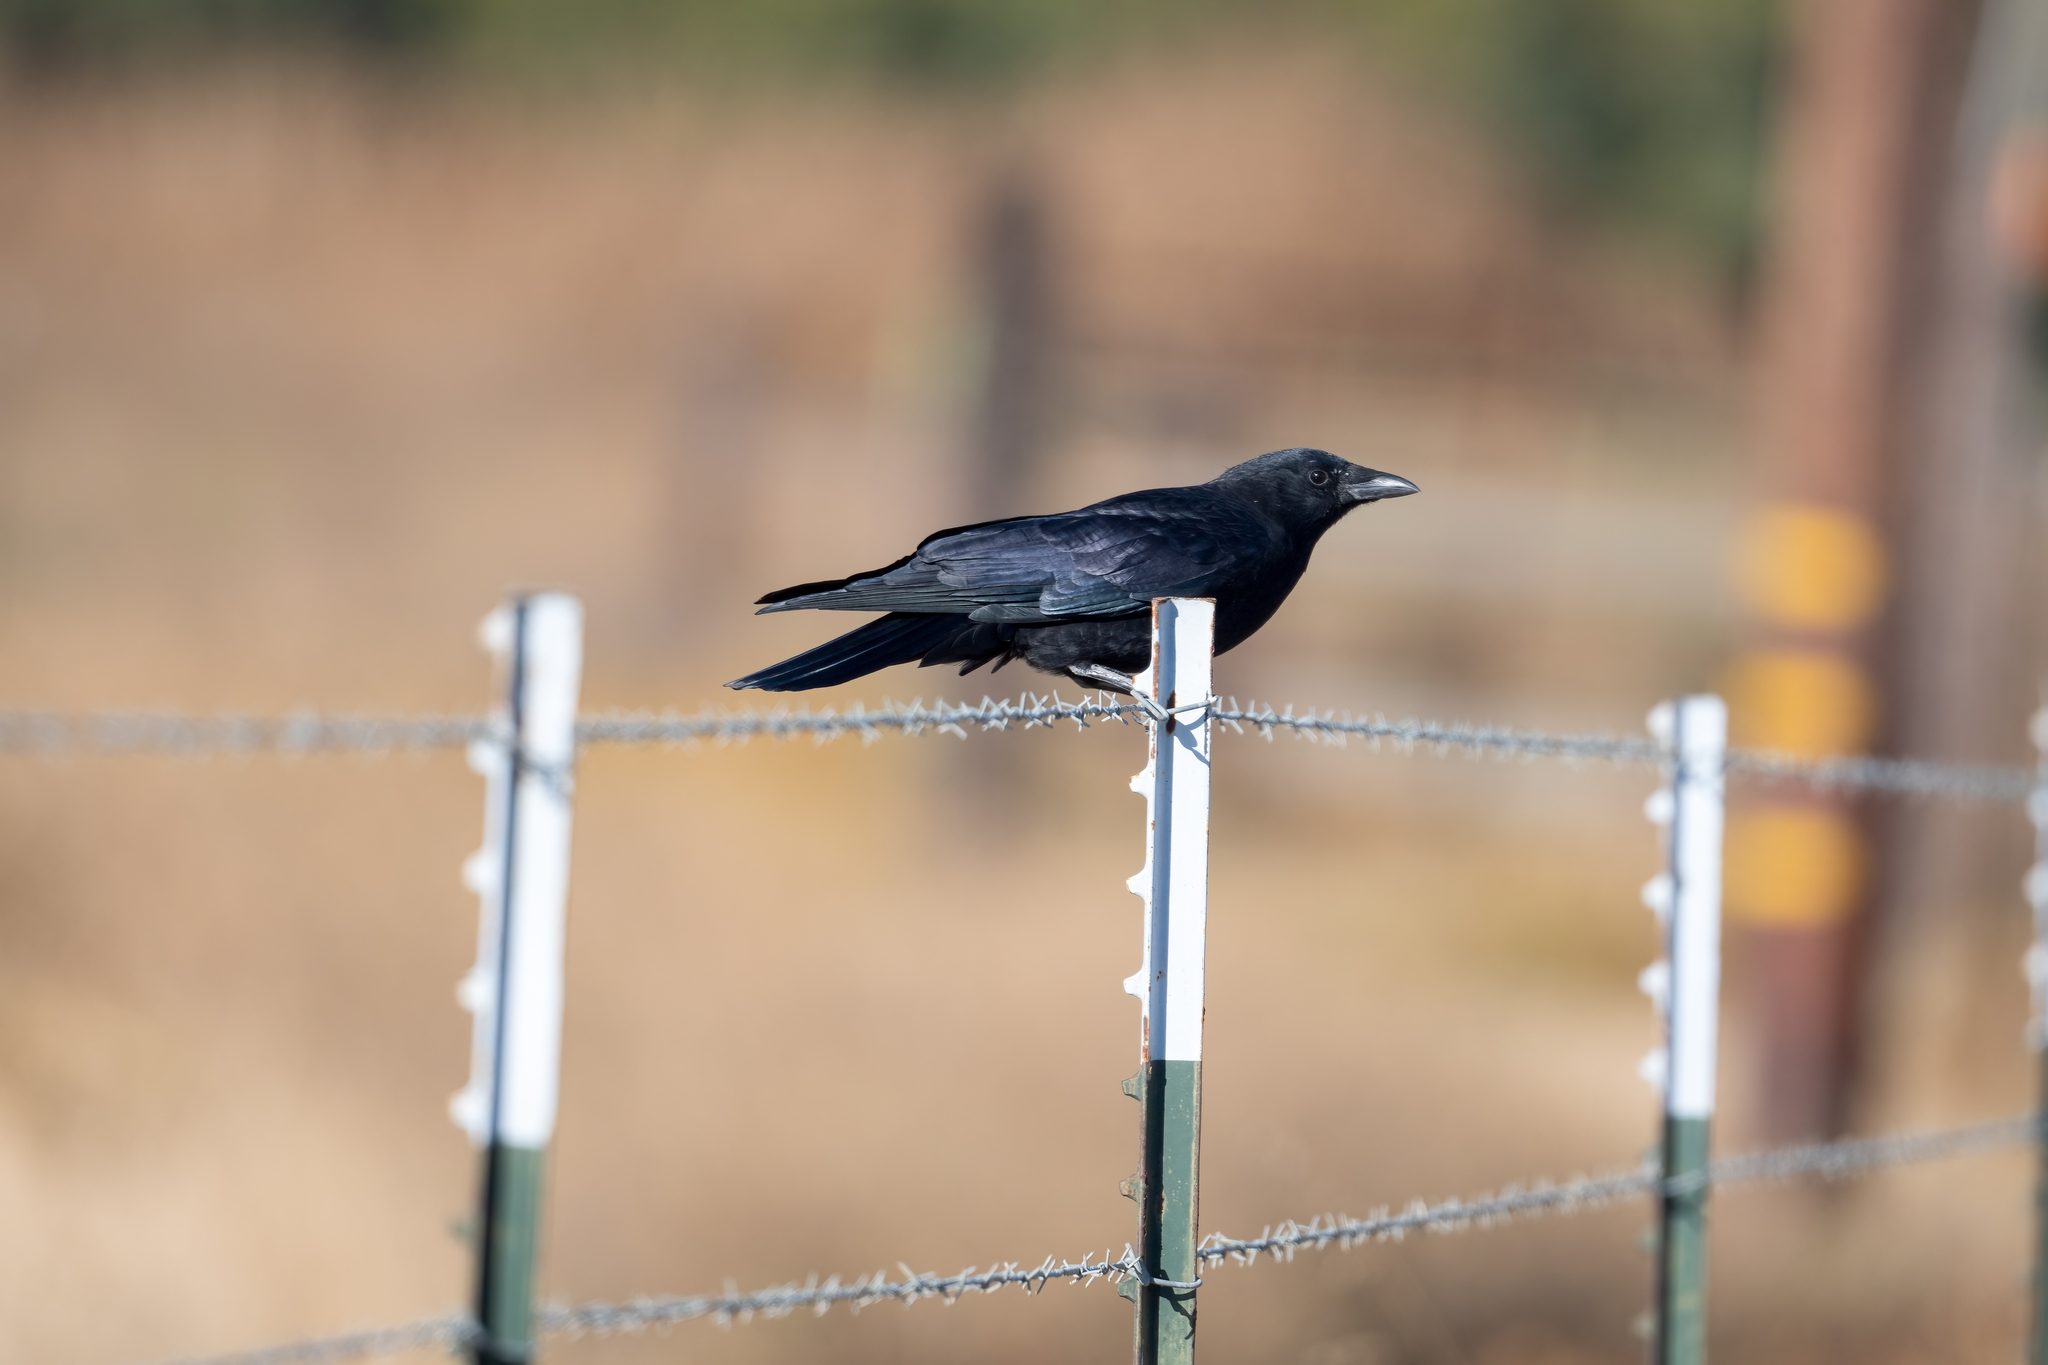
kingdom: Animalia
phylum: Chordata
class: Aves
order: Passeriformes
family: Corvidae
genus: Corvus
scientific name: Corvus brachyrhynchos
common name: American crow
